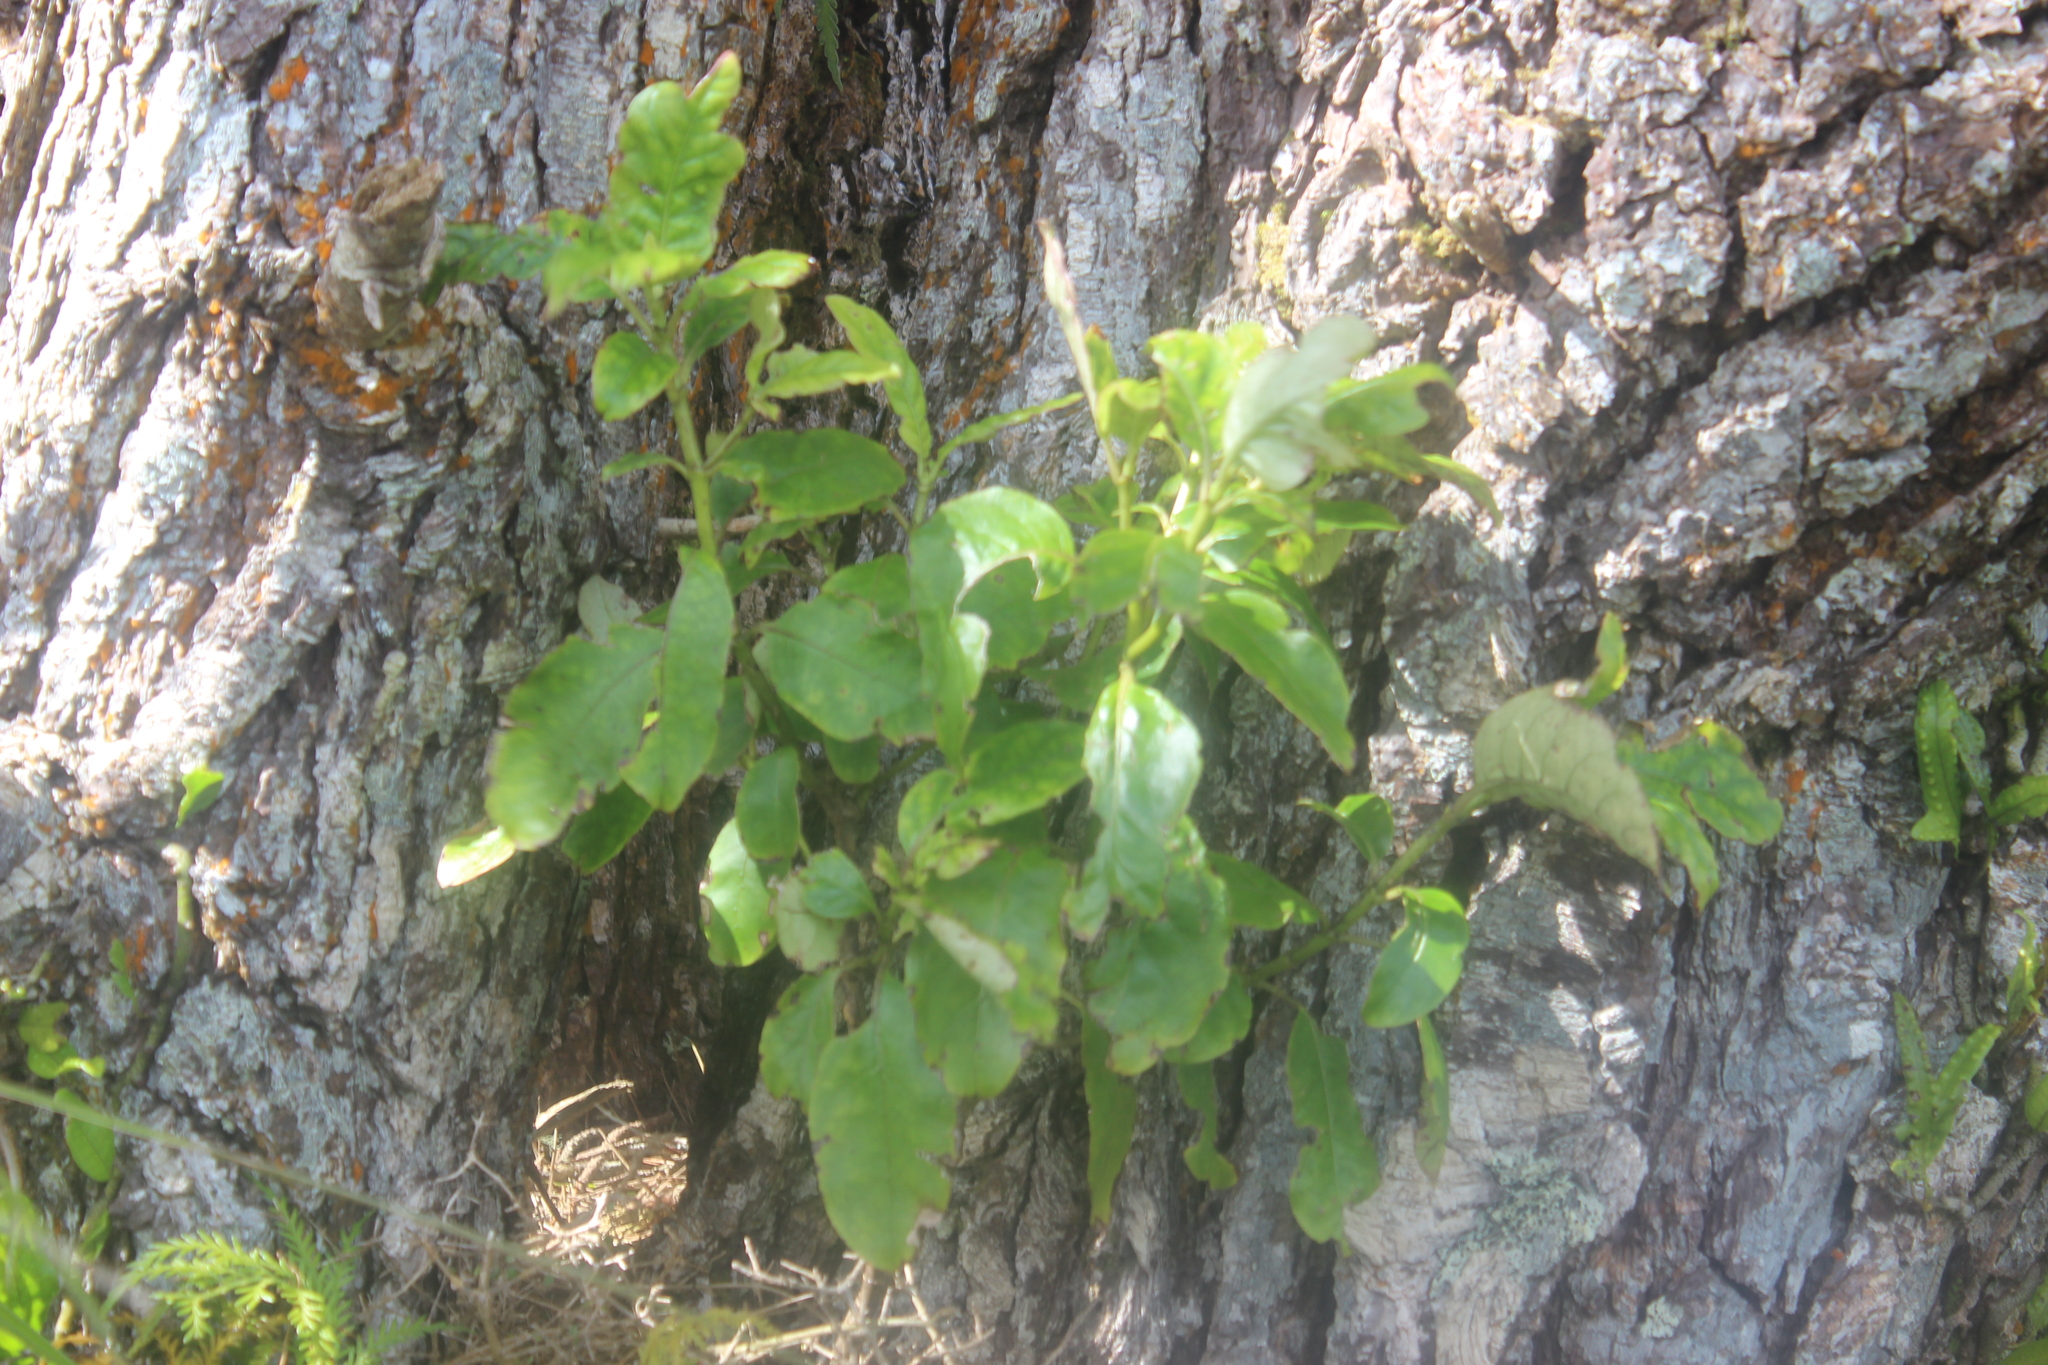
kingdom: Plantae
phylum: Tracheophyta
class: Magnoliopsida
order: Gentianales
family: Rubiaceae
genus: Coprosma
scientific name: Coprosma autumnalis
